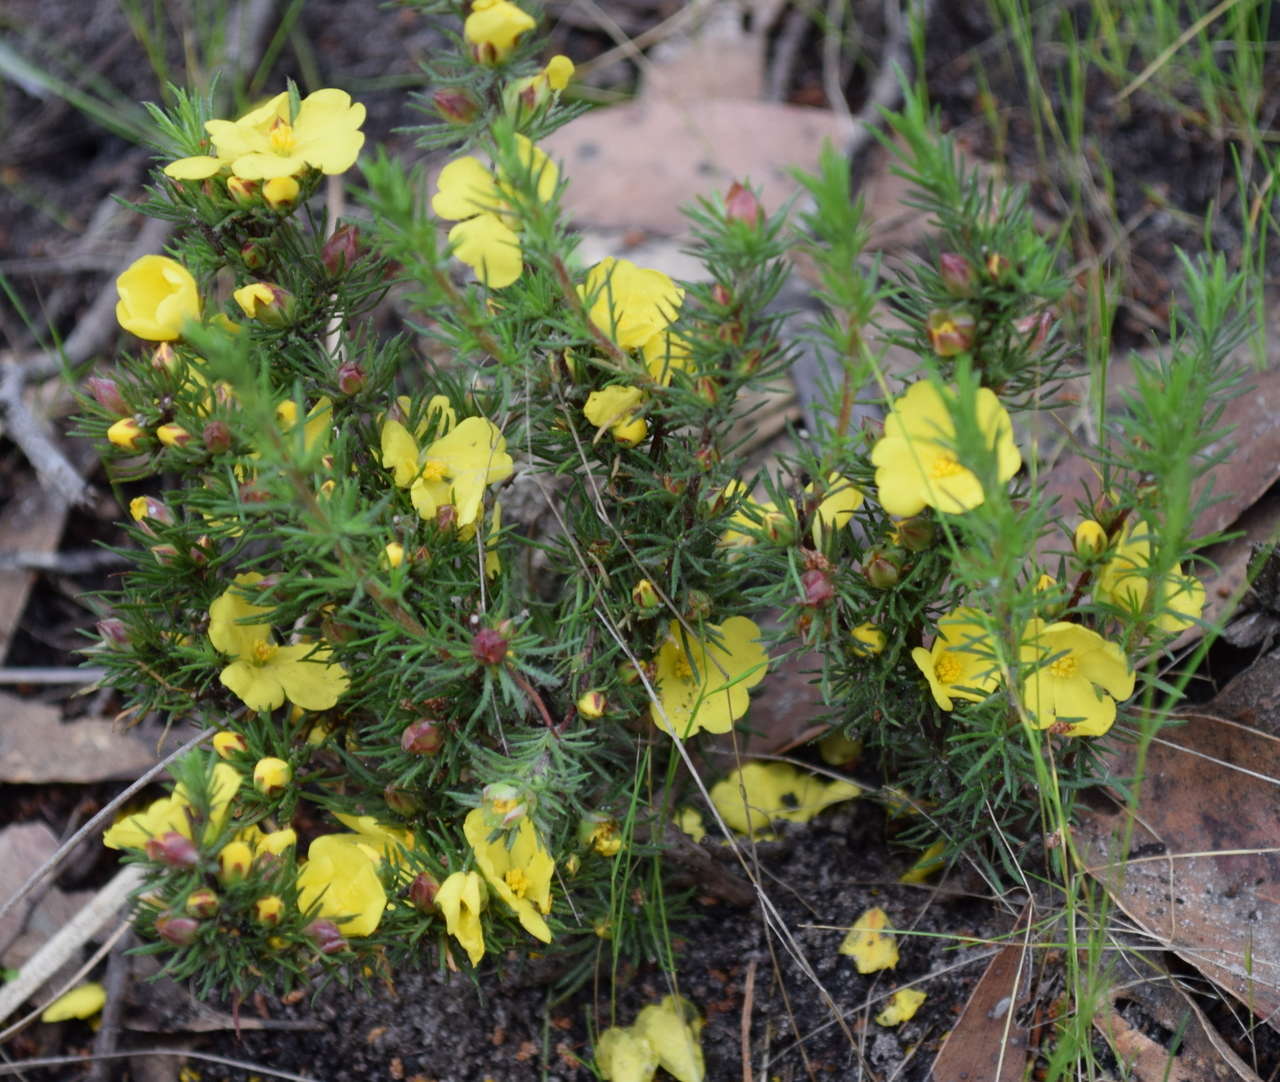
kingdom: Plantae
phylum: Tracheophyta
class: Magnoliopsida
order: Dilleniales
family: Dilleniaceae
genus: Hibbertia
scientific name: Hibbertia prostrata
